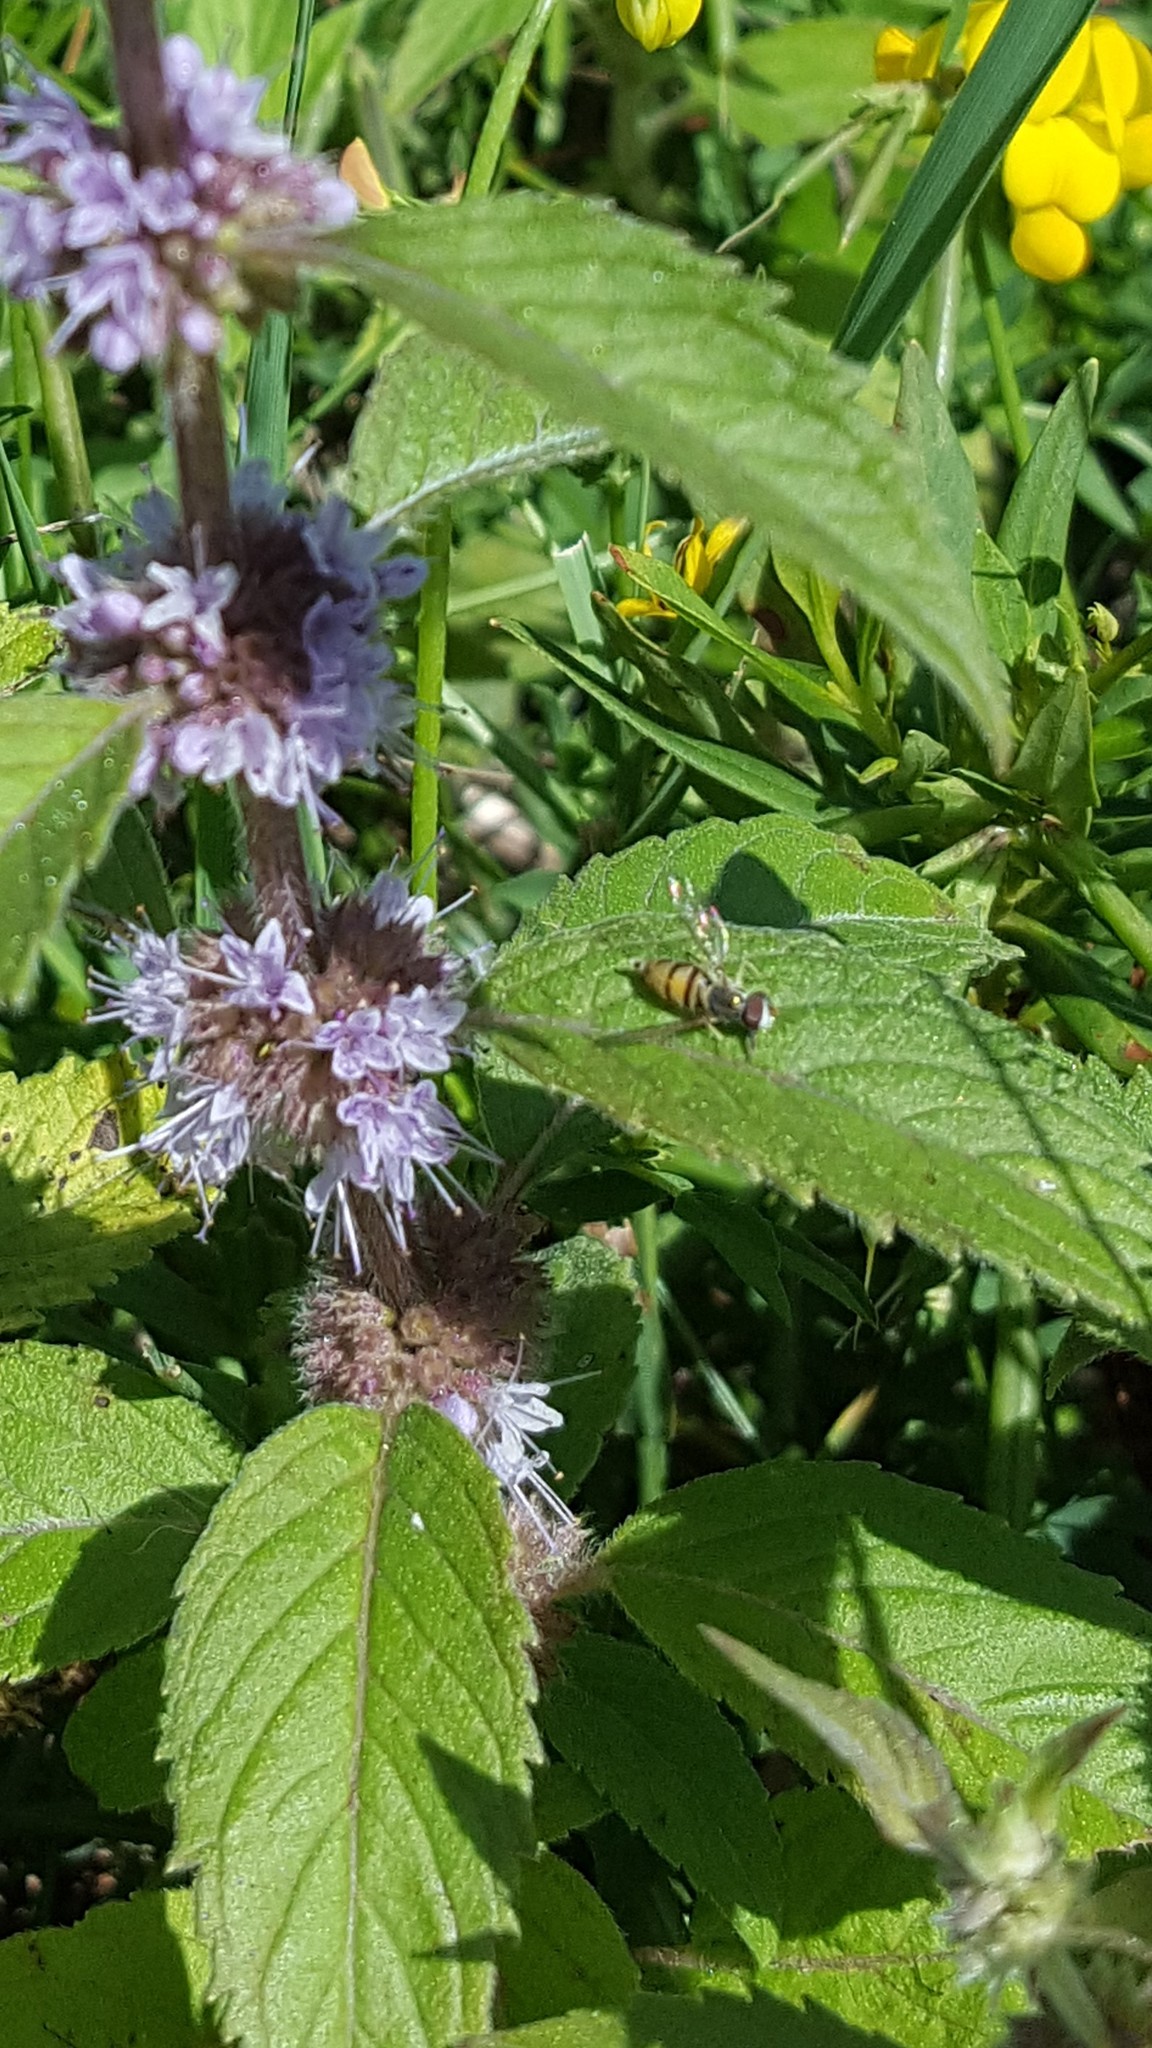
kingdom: Plantae
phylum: Tracheophyta
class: Magnoliopsida
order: Lamiales
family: Lamiaceae
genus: Mentha
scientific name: Mentha arvensis
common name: Corn mint
